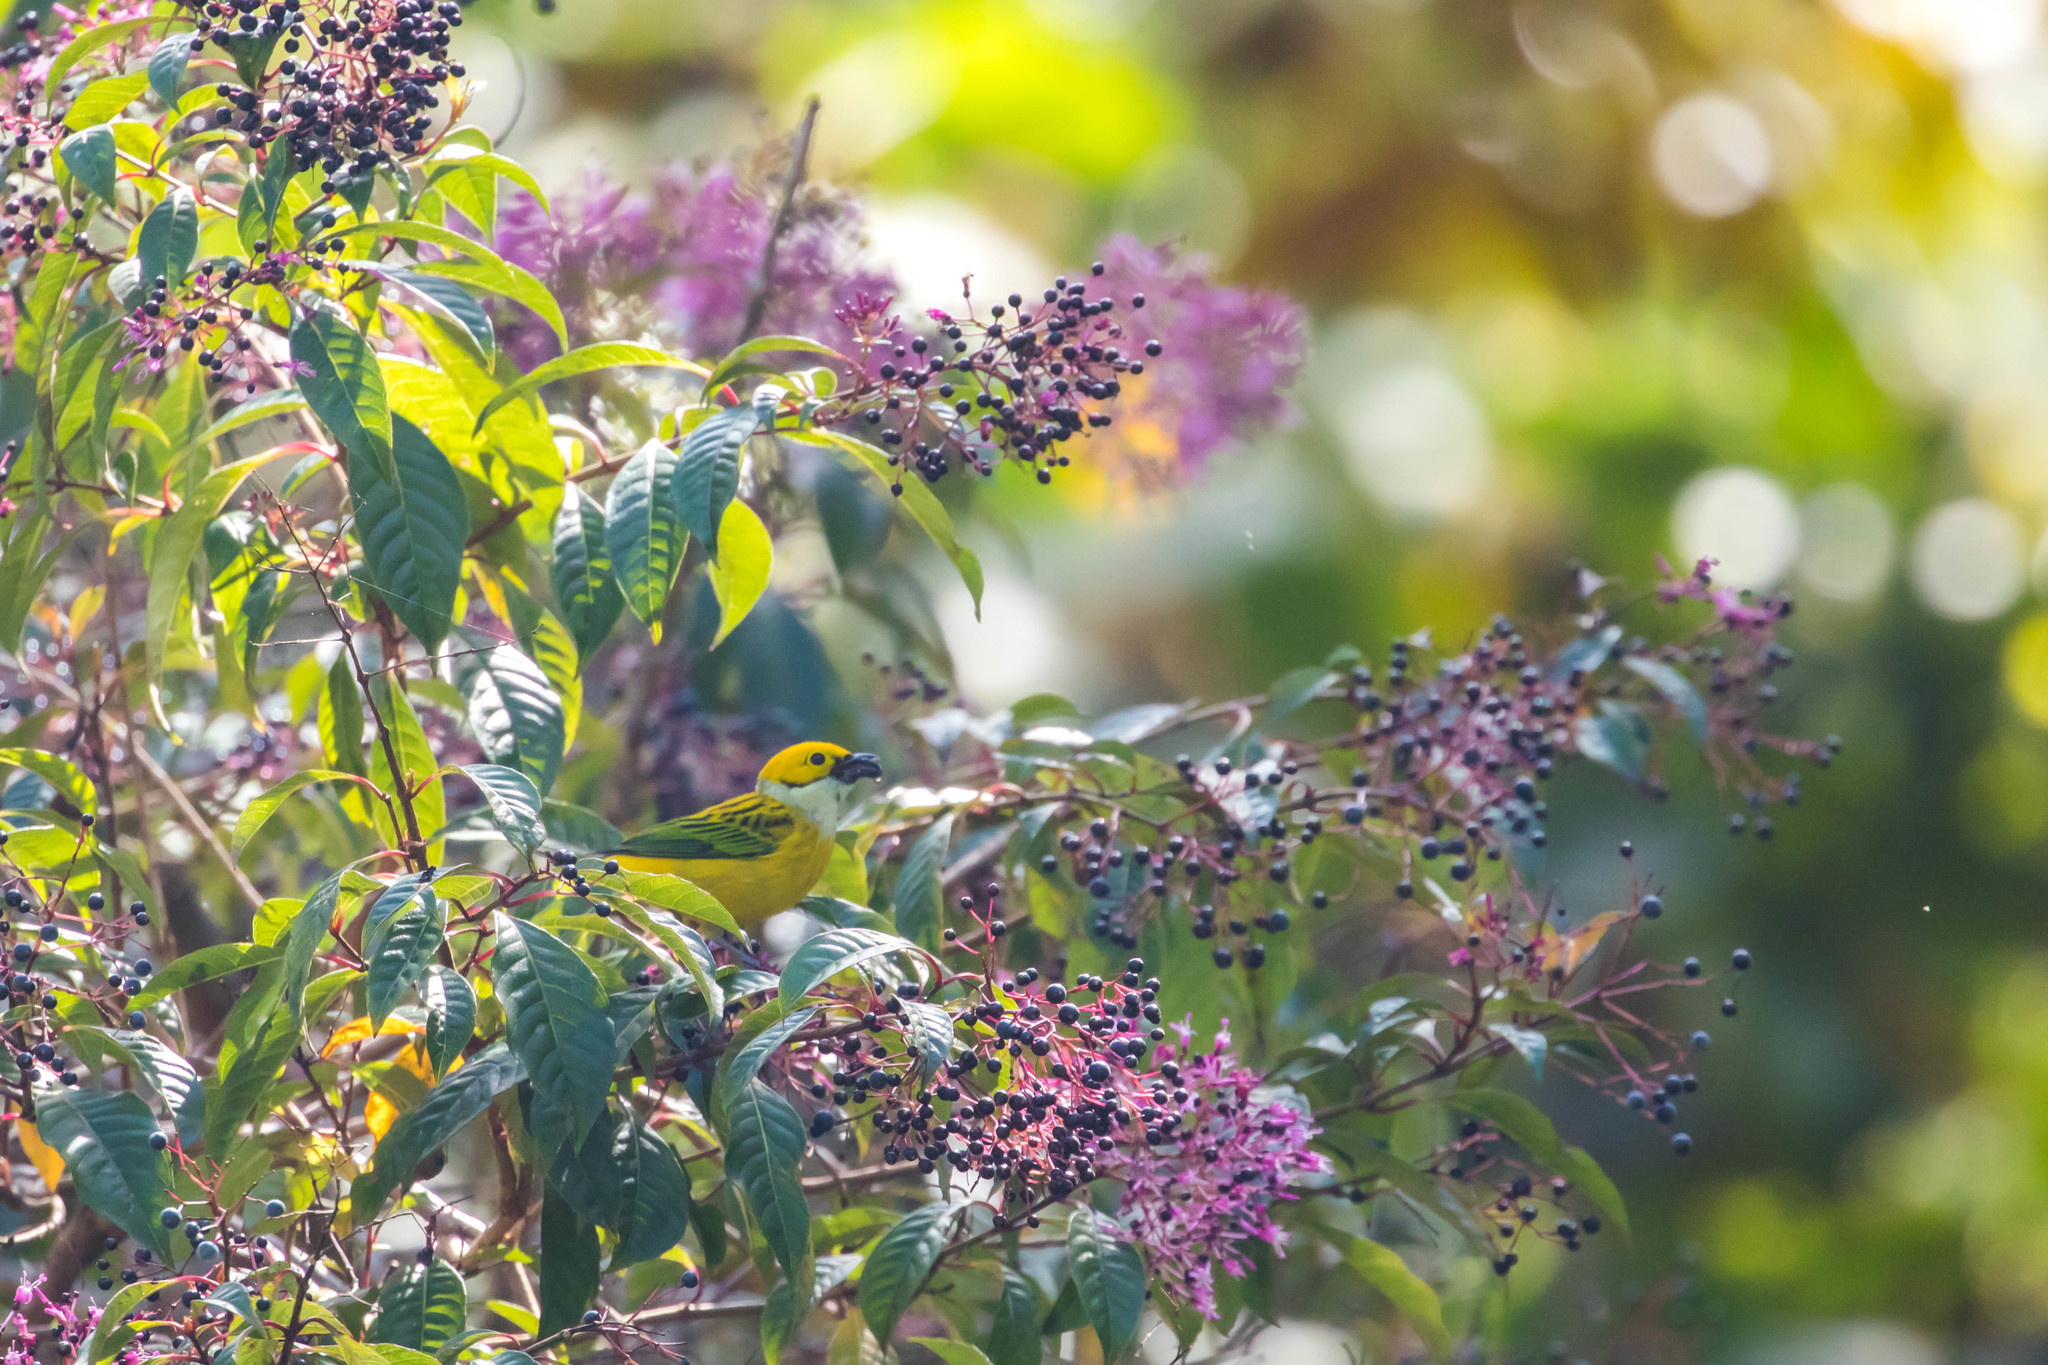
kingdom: Animalia
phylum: Chordata
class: Aves
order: Passeriformes
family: Thraupidae
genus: Tangara
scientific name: Tangara icterocephala
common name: Silver-throated tanager
